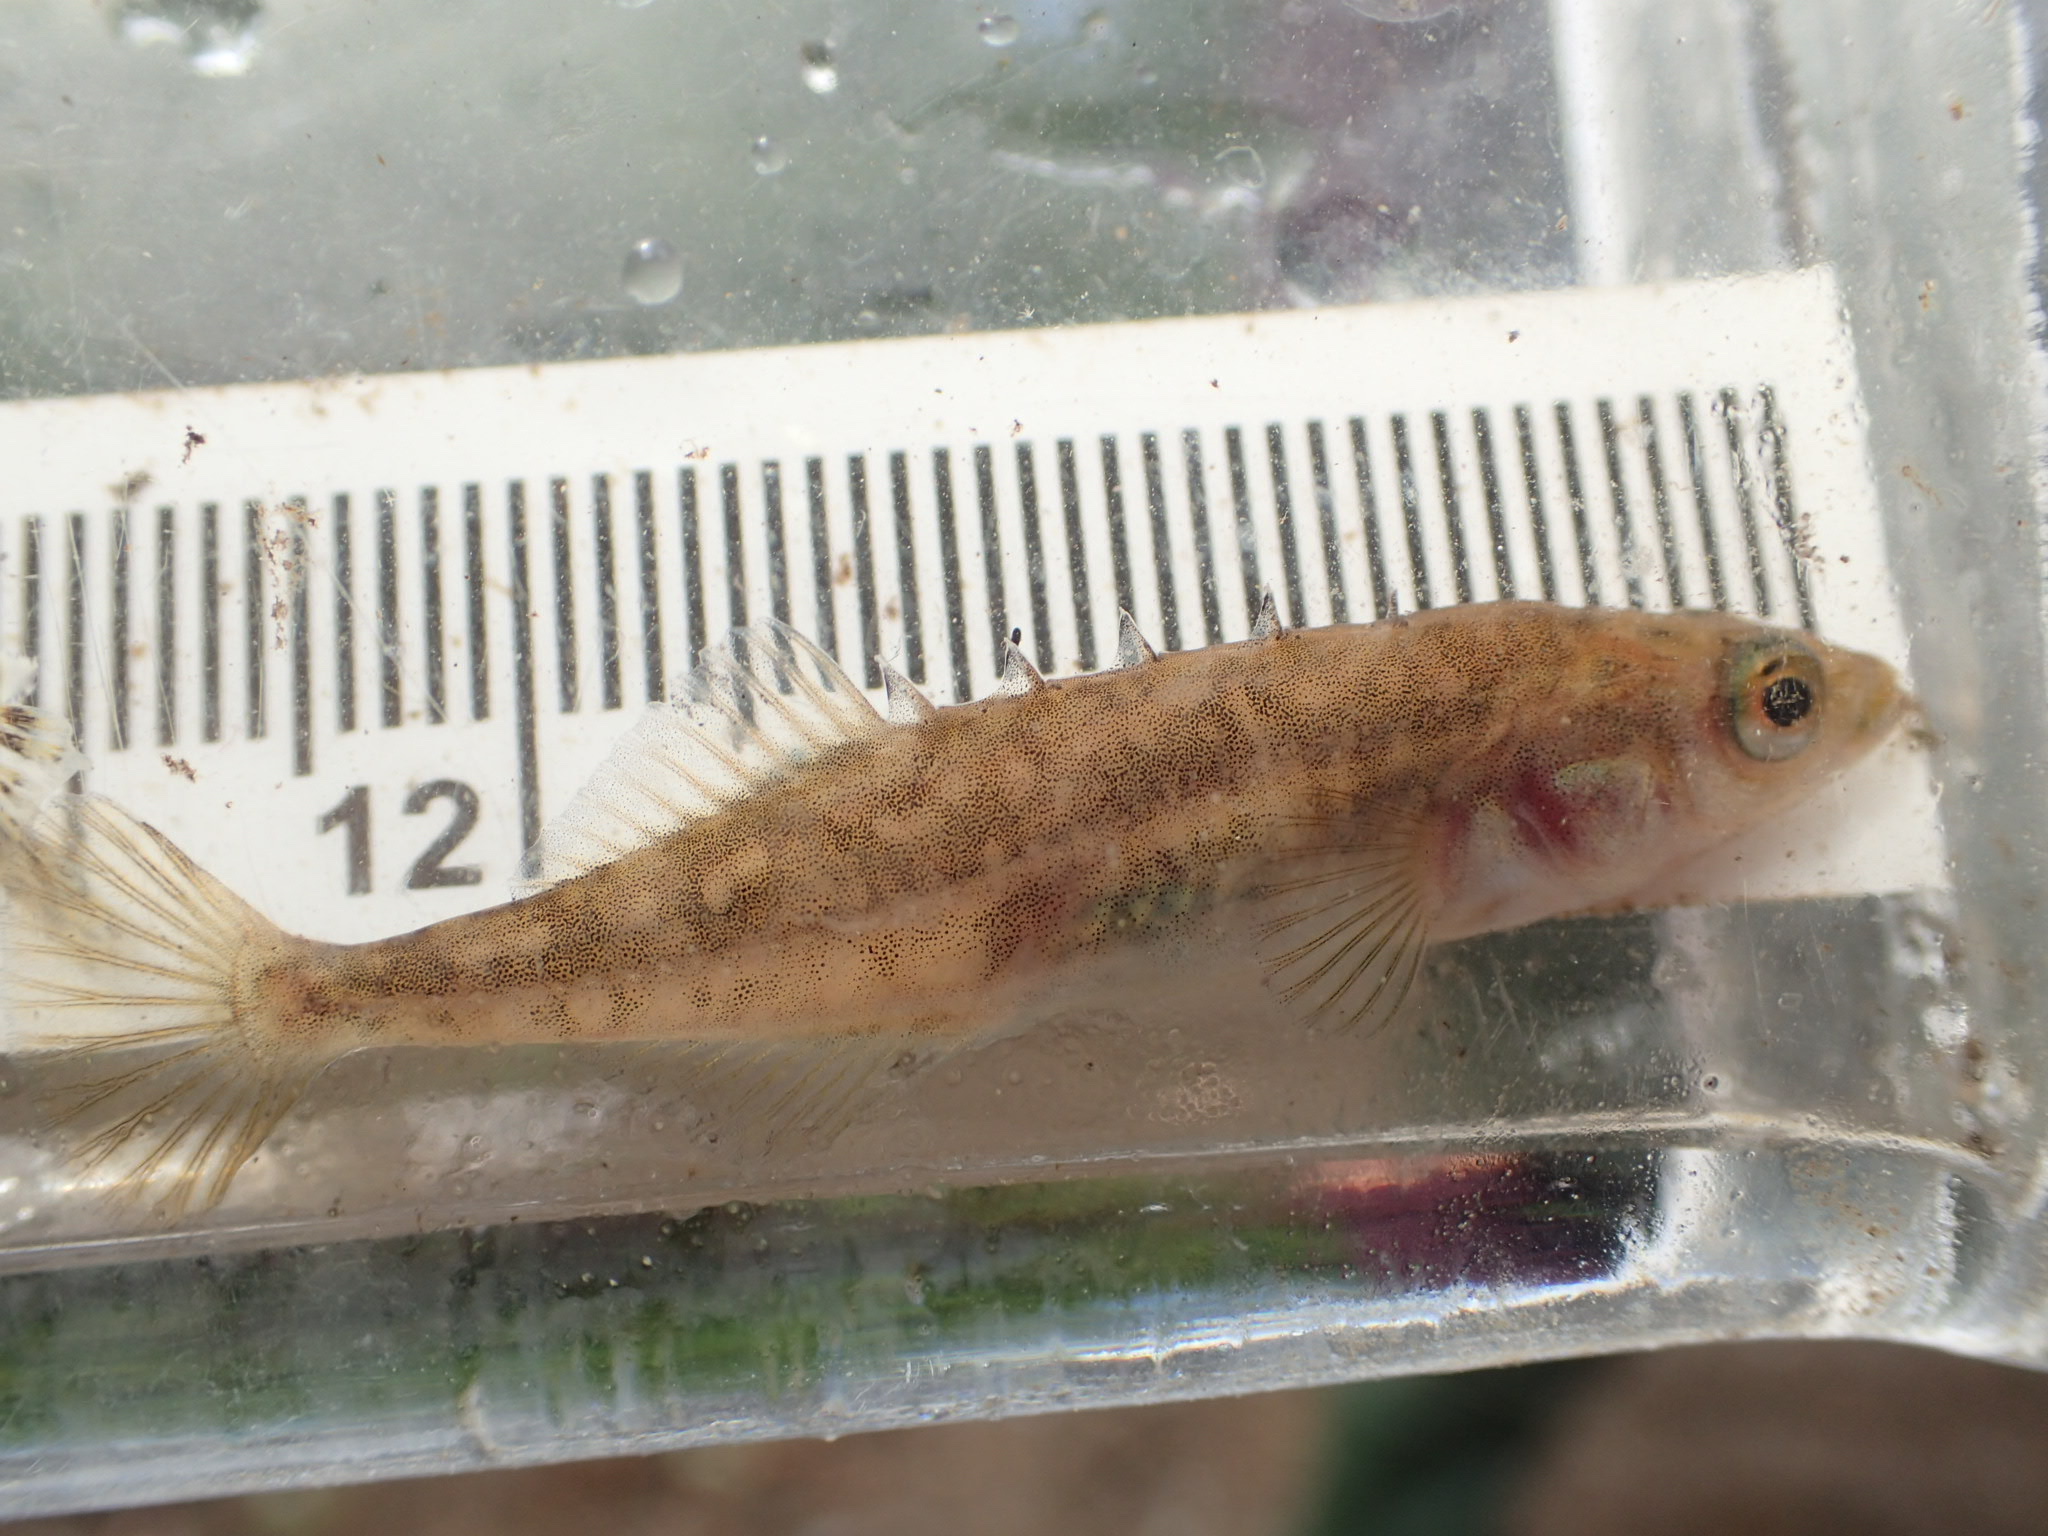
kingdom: Animalia
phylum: Chordata
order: Gasterosteiformes
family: Gasterosteidae
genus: Culaea
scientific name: Culaea inconstans
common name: Brook stickleback
